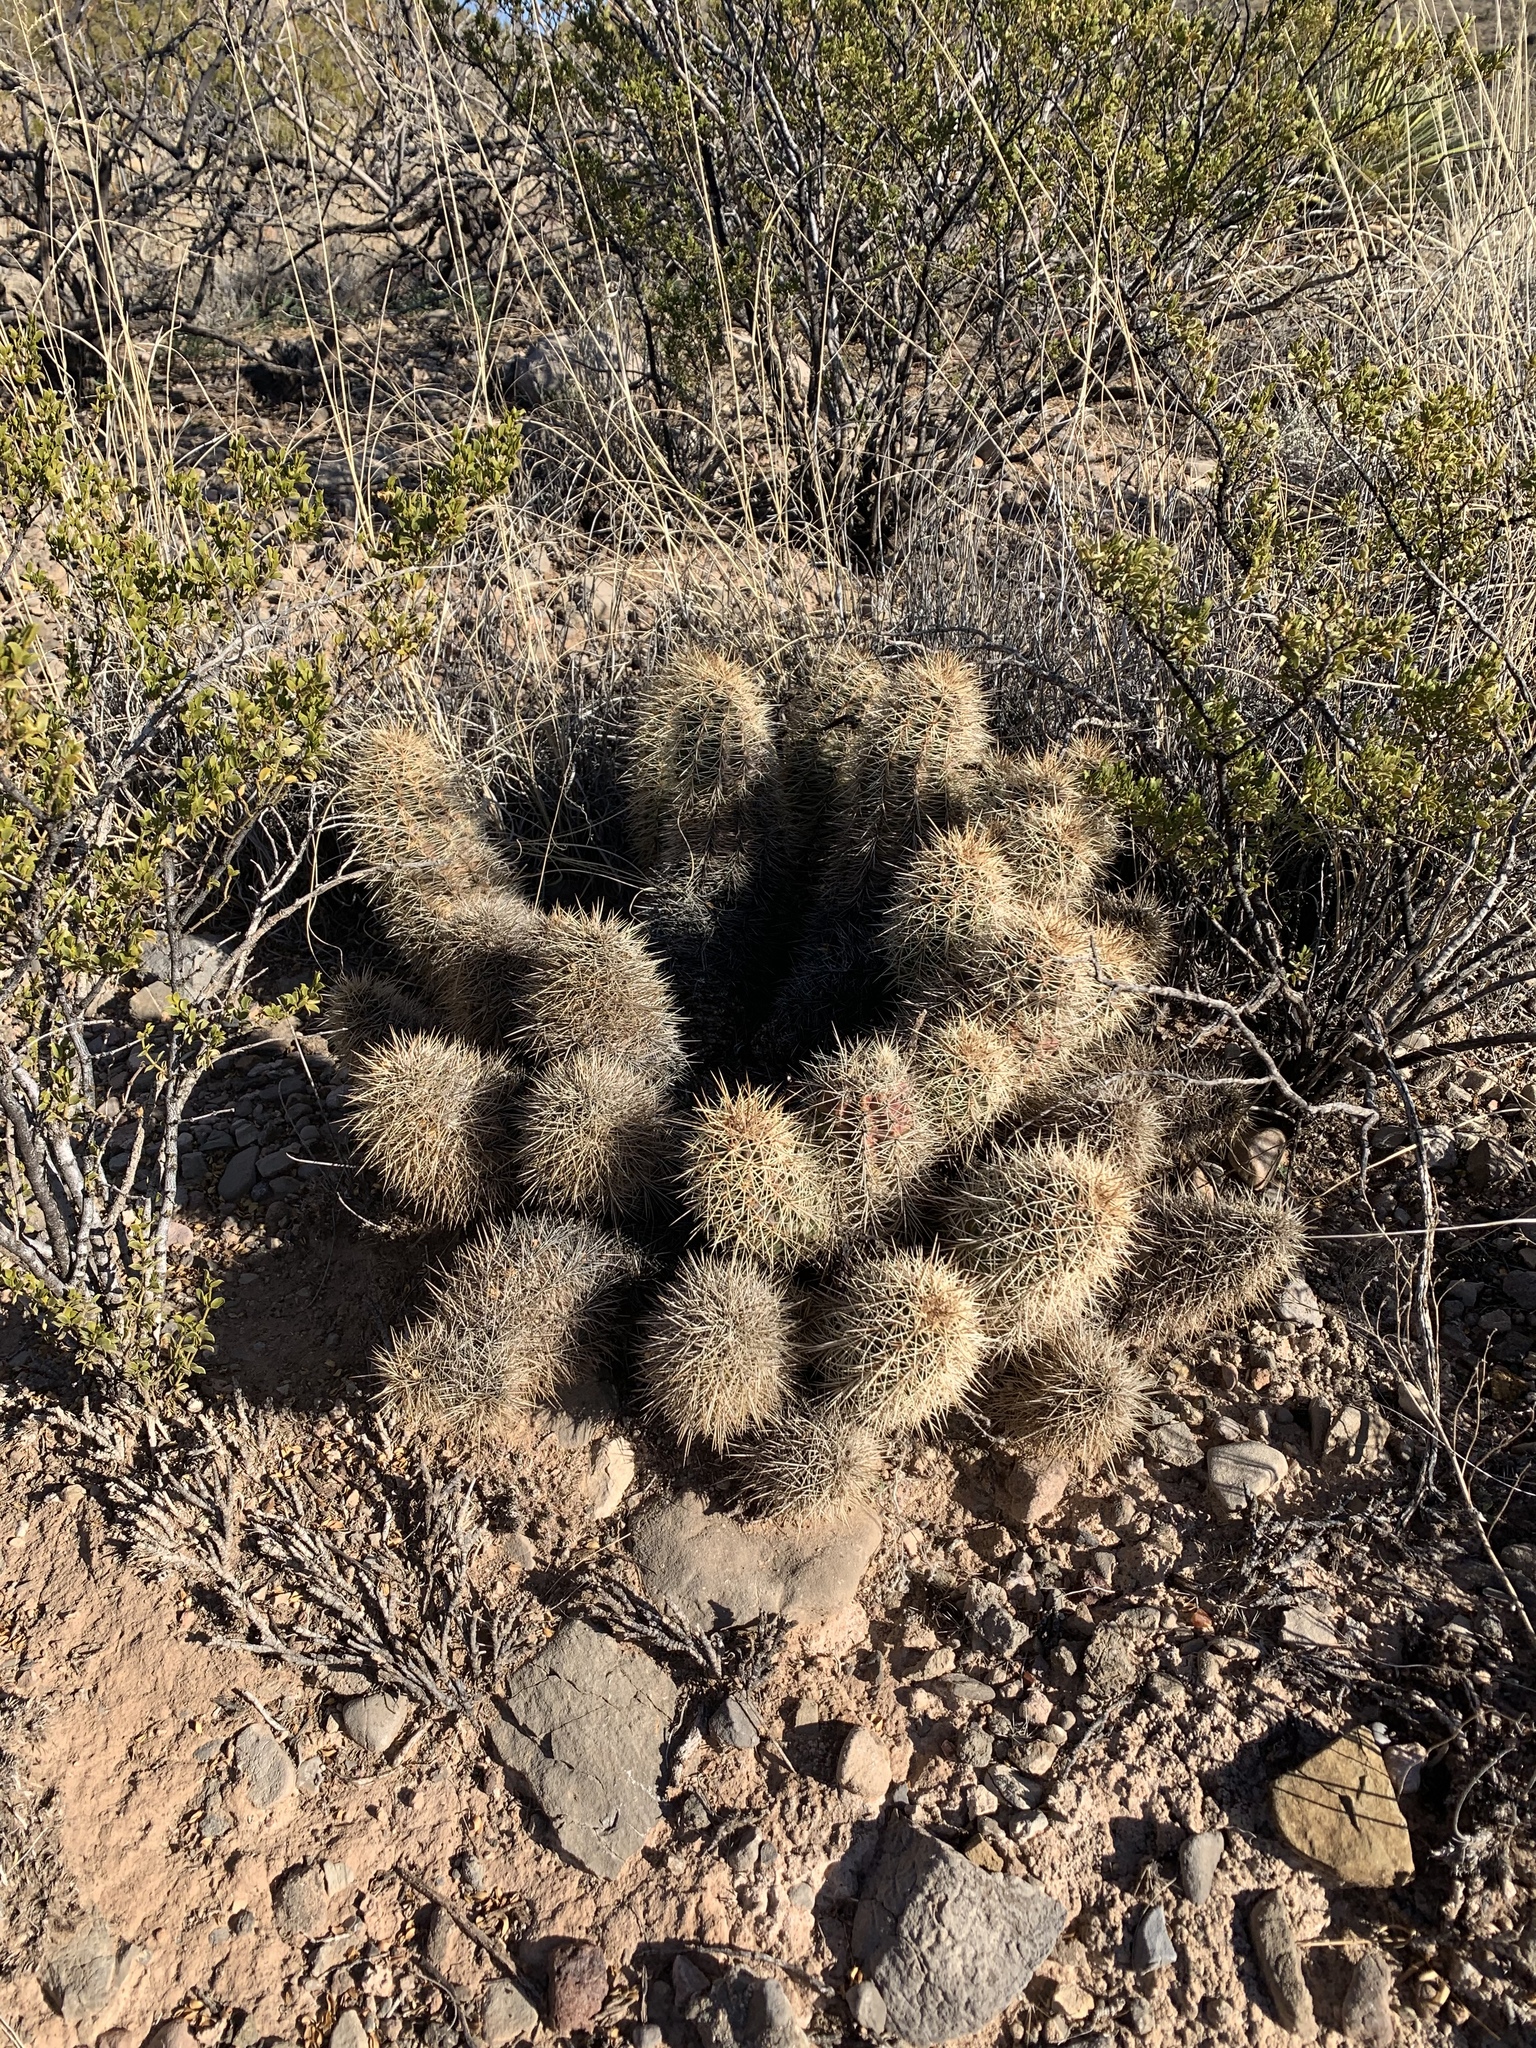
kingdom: Plantae
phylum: Tracheophyta
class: Magnoliopsida
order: Caryophyllales
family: Cactaceae
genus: Echinocereus
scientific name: Echinocereus coccineus
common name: Scarlet hedgehog cactus
